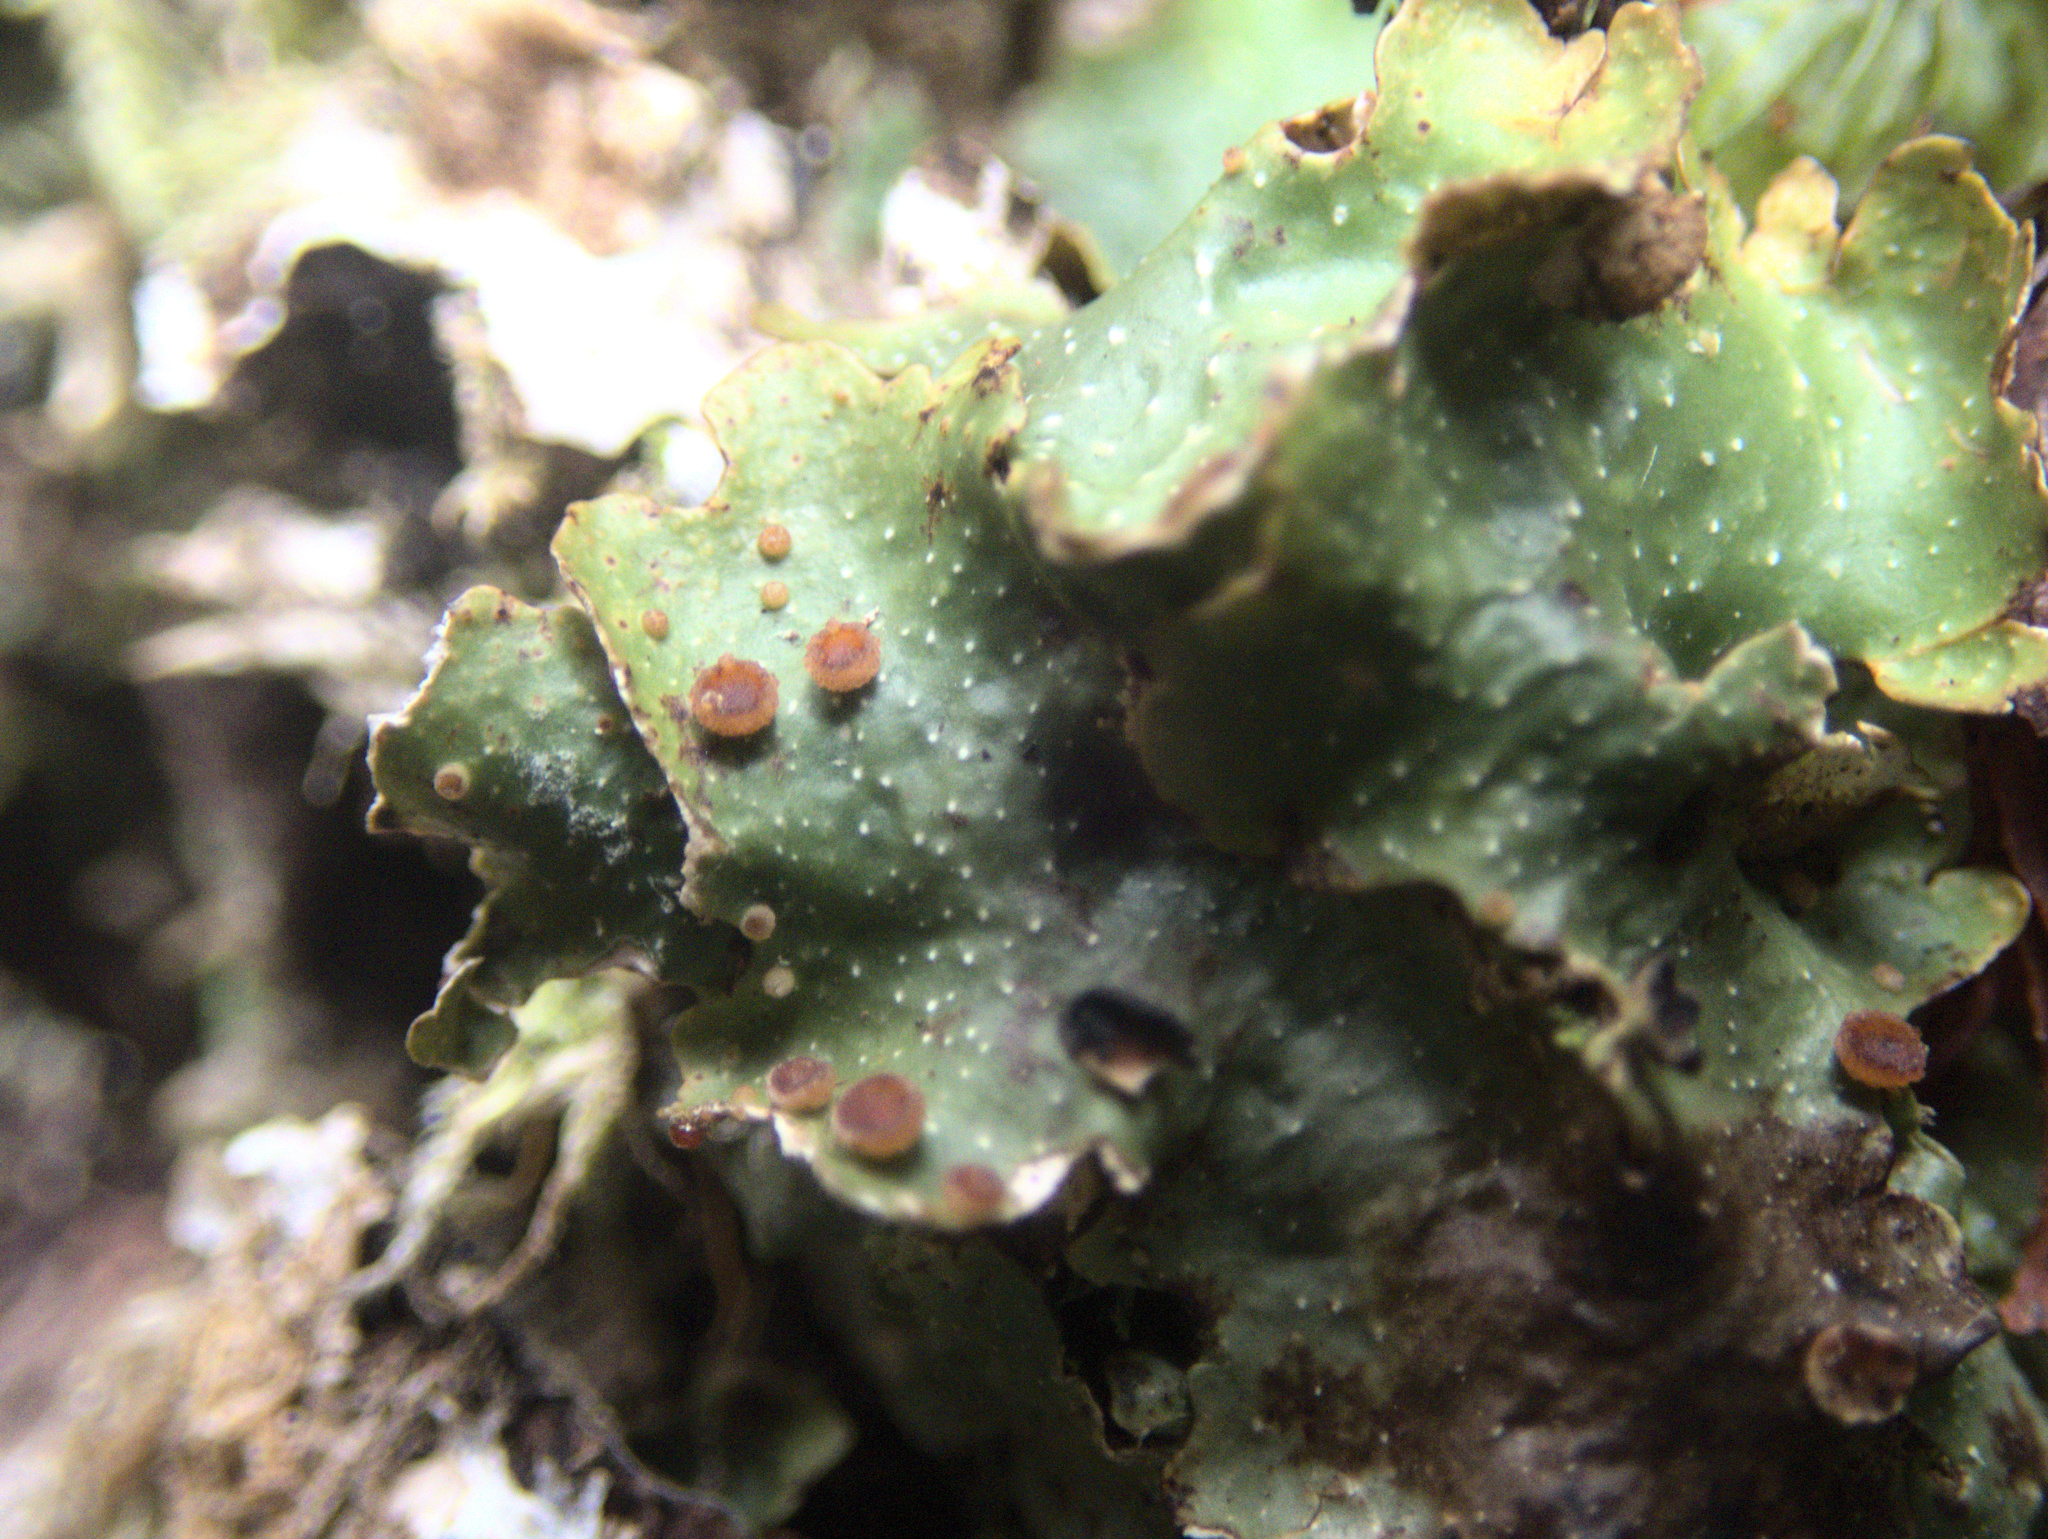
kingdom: Fungi
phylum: Ascomycota
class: Lecanoromycetes
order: Peltigerales
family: Lobariaceae
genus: Pseudocyphellaria
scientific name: Pseudocyphellaria lividofusca
